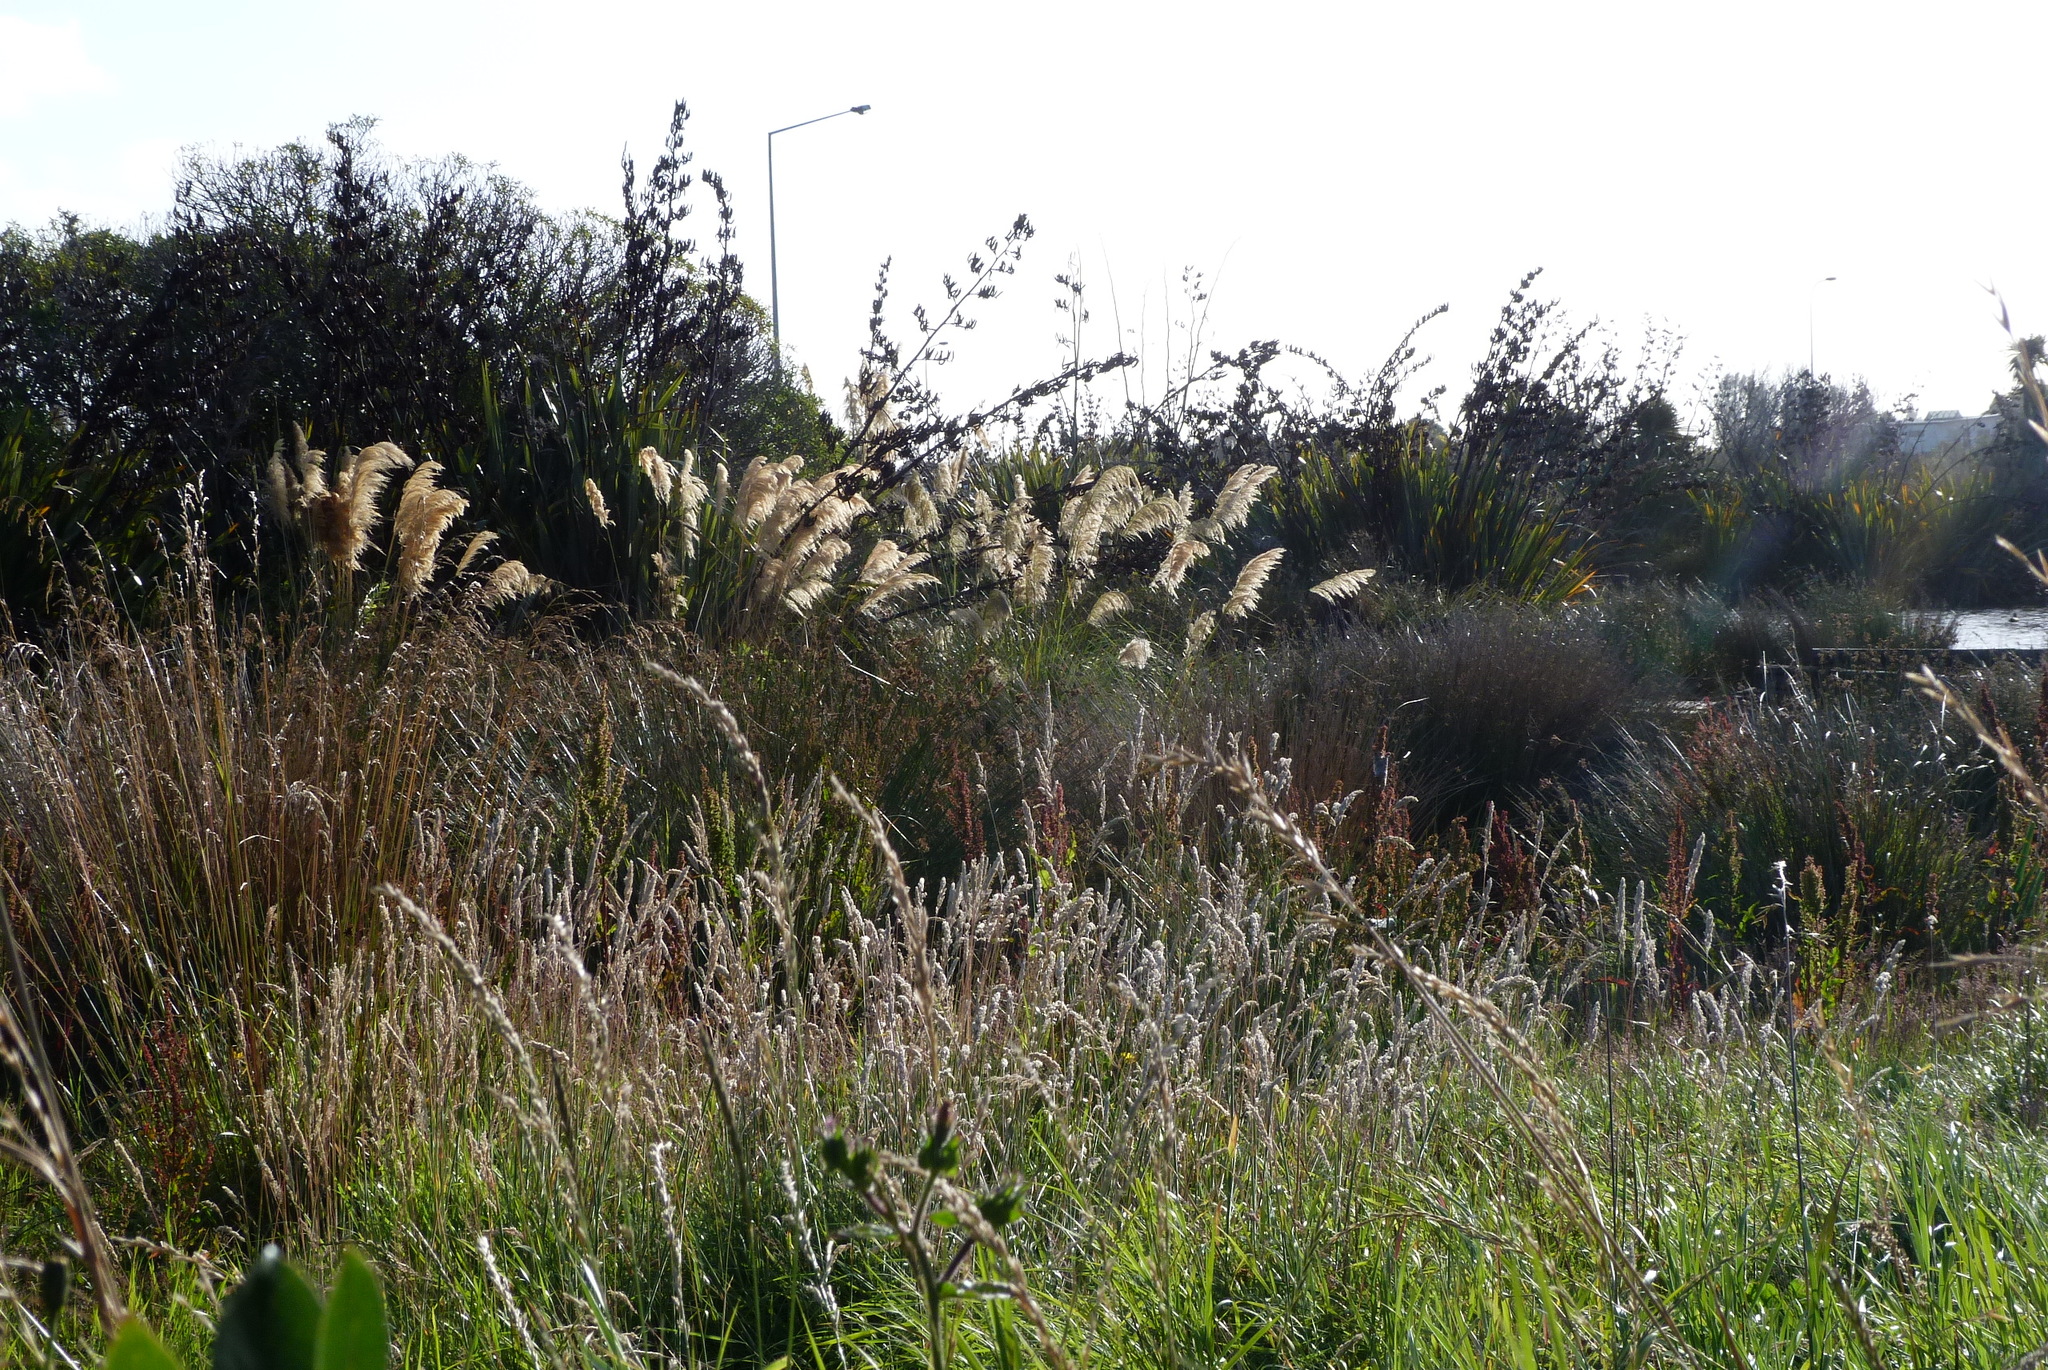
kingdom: Plantae
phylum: Tracheophyta
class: Liliopsida
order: Poales
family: Poaceae
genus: Holcus
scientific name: Holcus lanatus
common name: Yorkshire-fog
